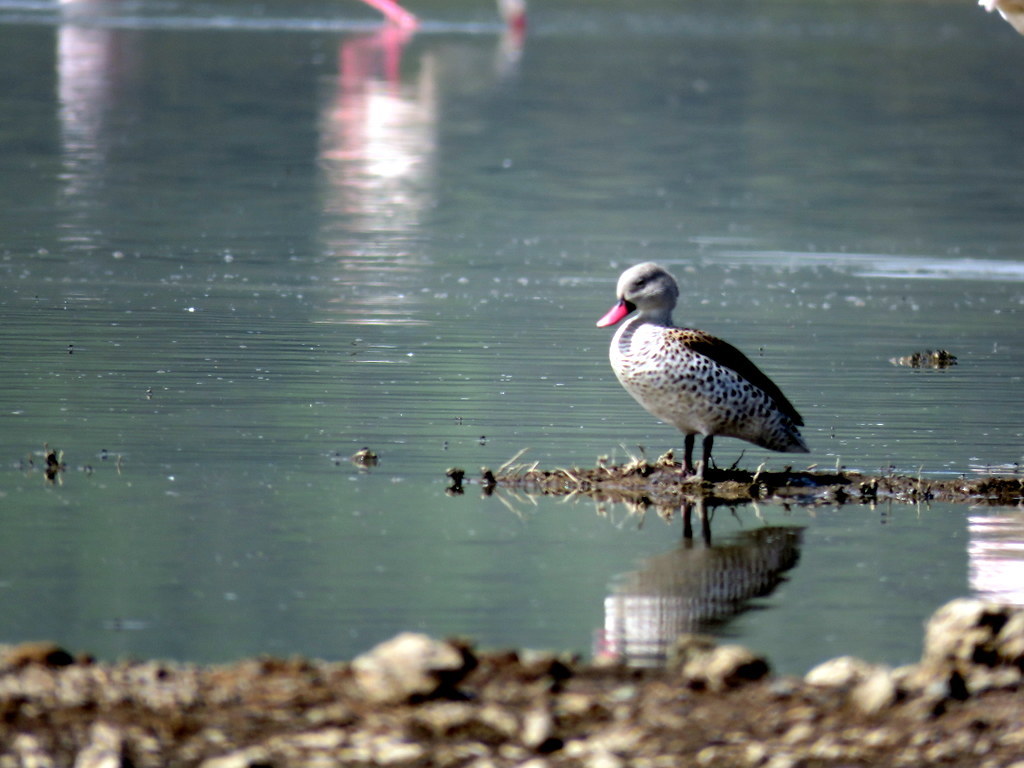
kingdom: Animalia
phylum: Chordata
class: Aves
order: Anseriformes
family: Anatidae
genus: Anas
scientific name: Anas capensis
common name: Cape teal
